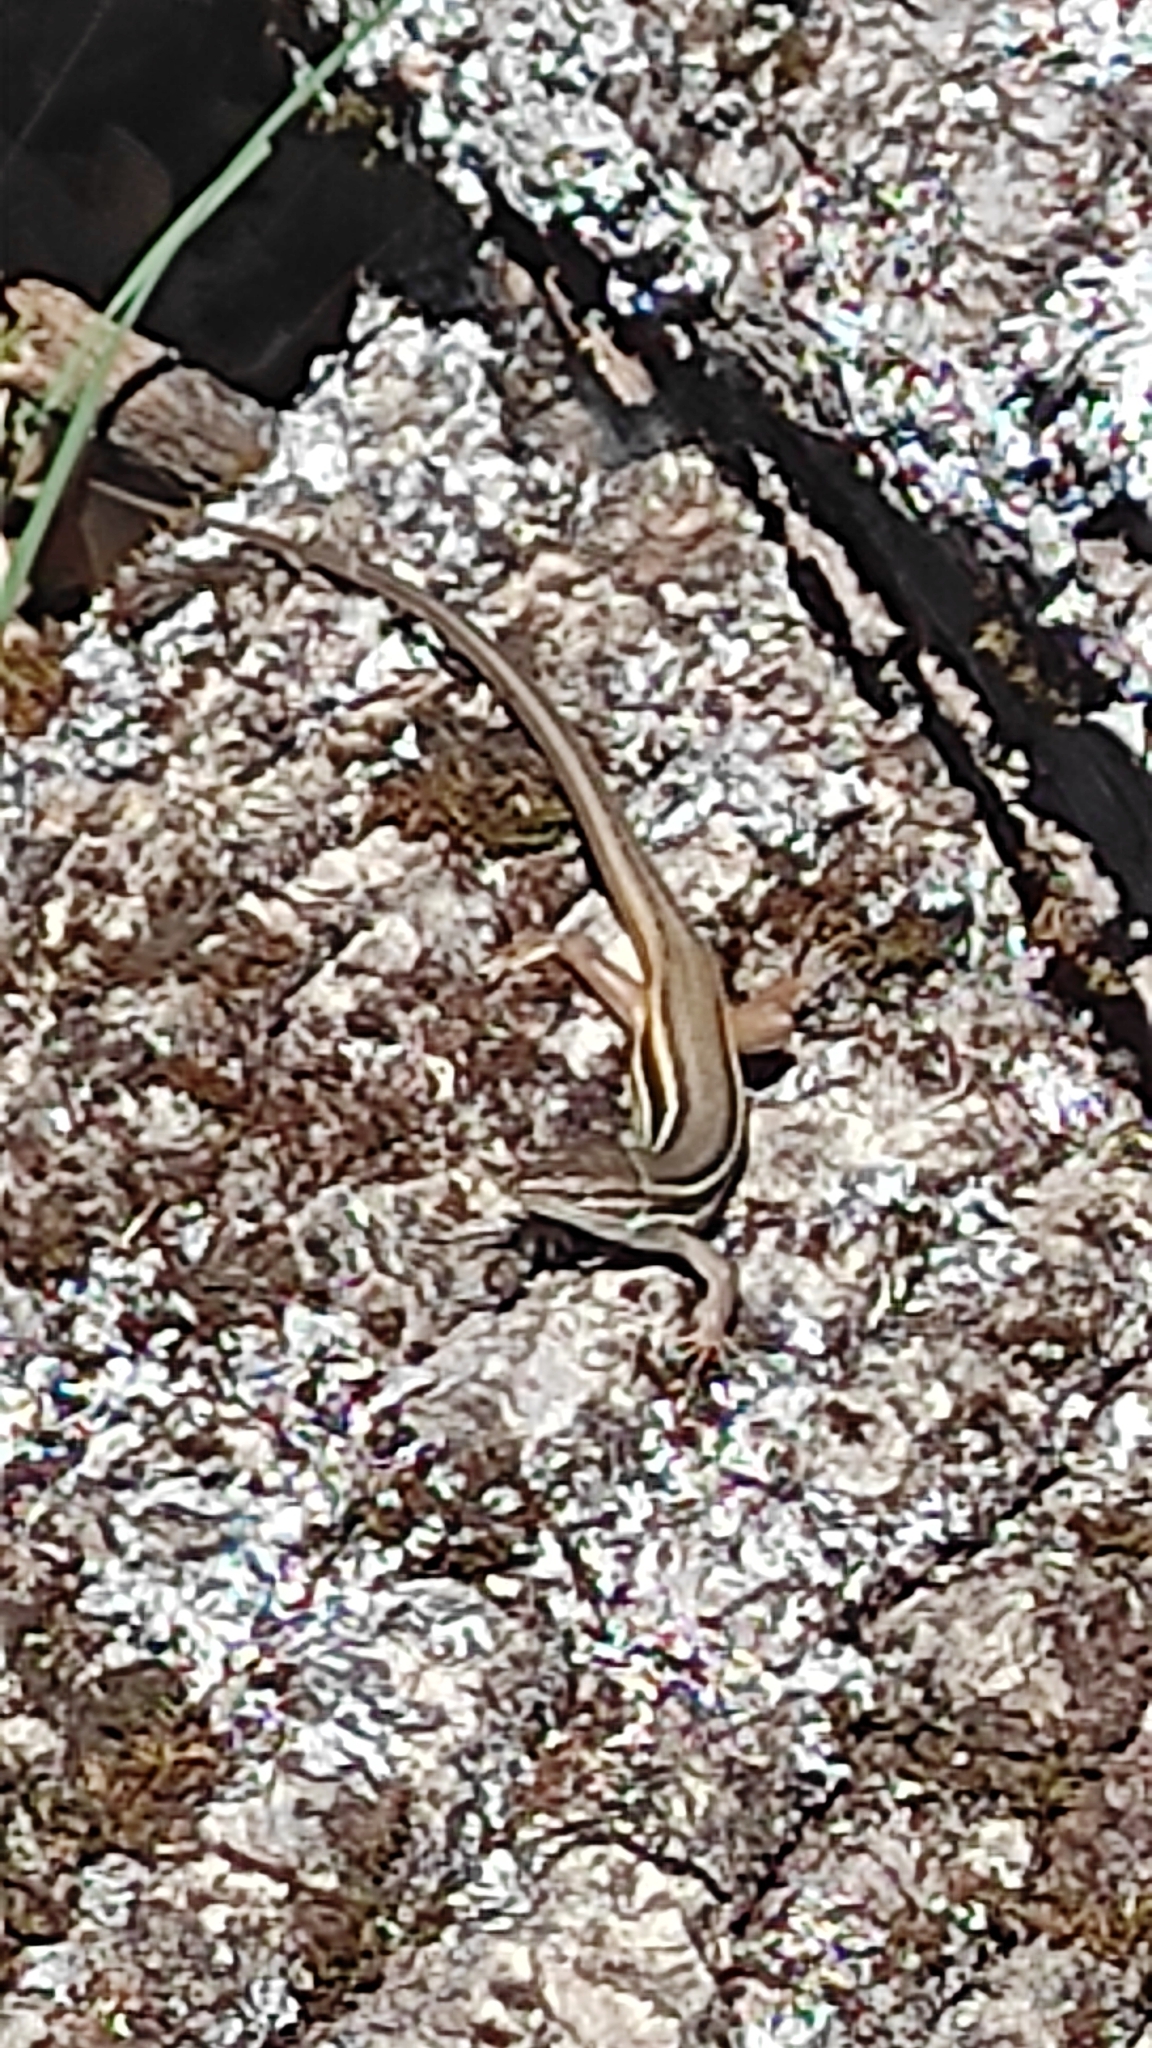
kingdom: Animalia
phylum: Chordata
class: Squamata
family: Lacertidae
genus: Psammodromus
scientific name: Psammodromus algirus
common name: Algerian psammodromus
